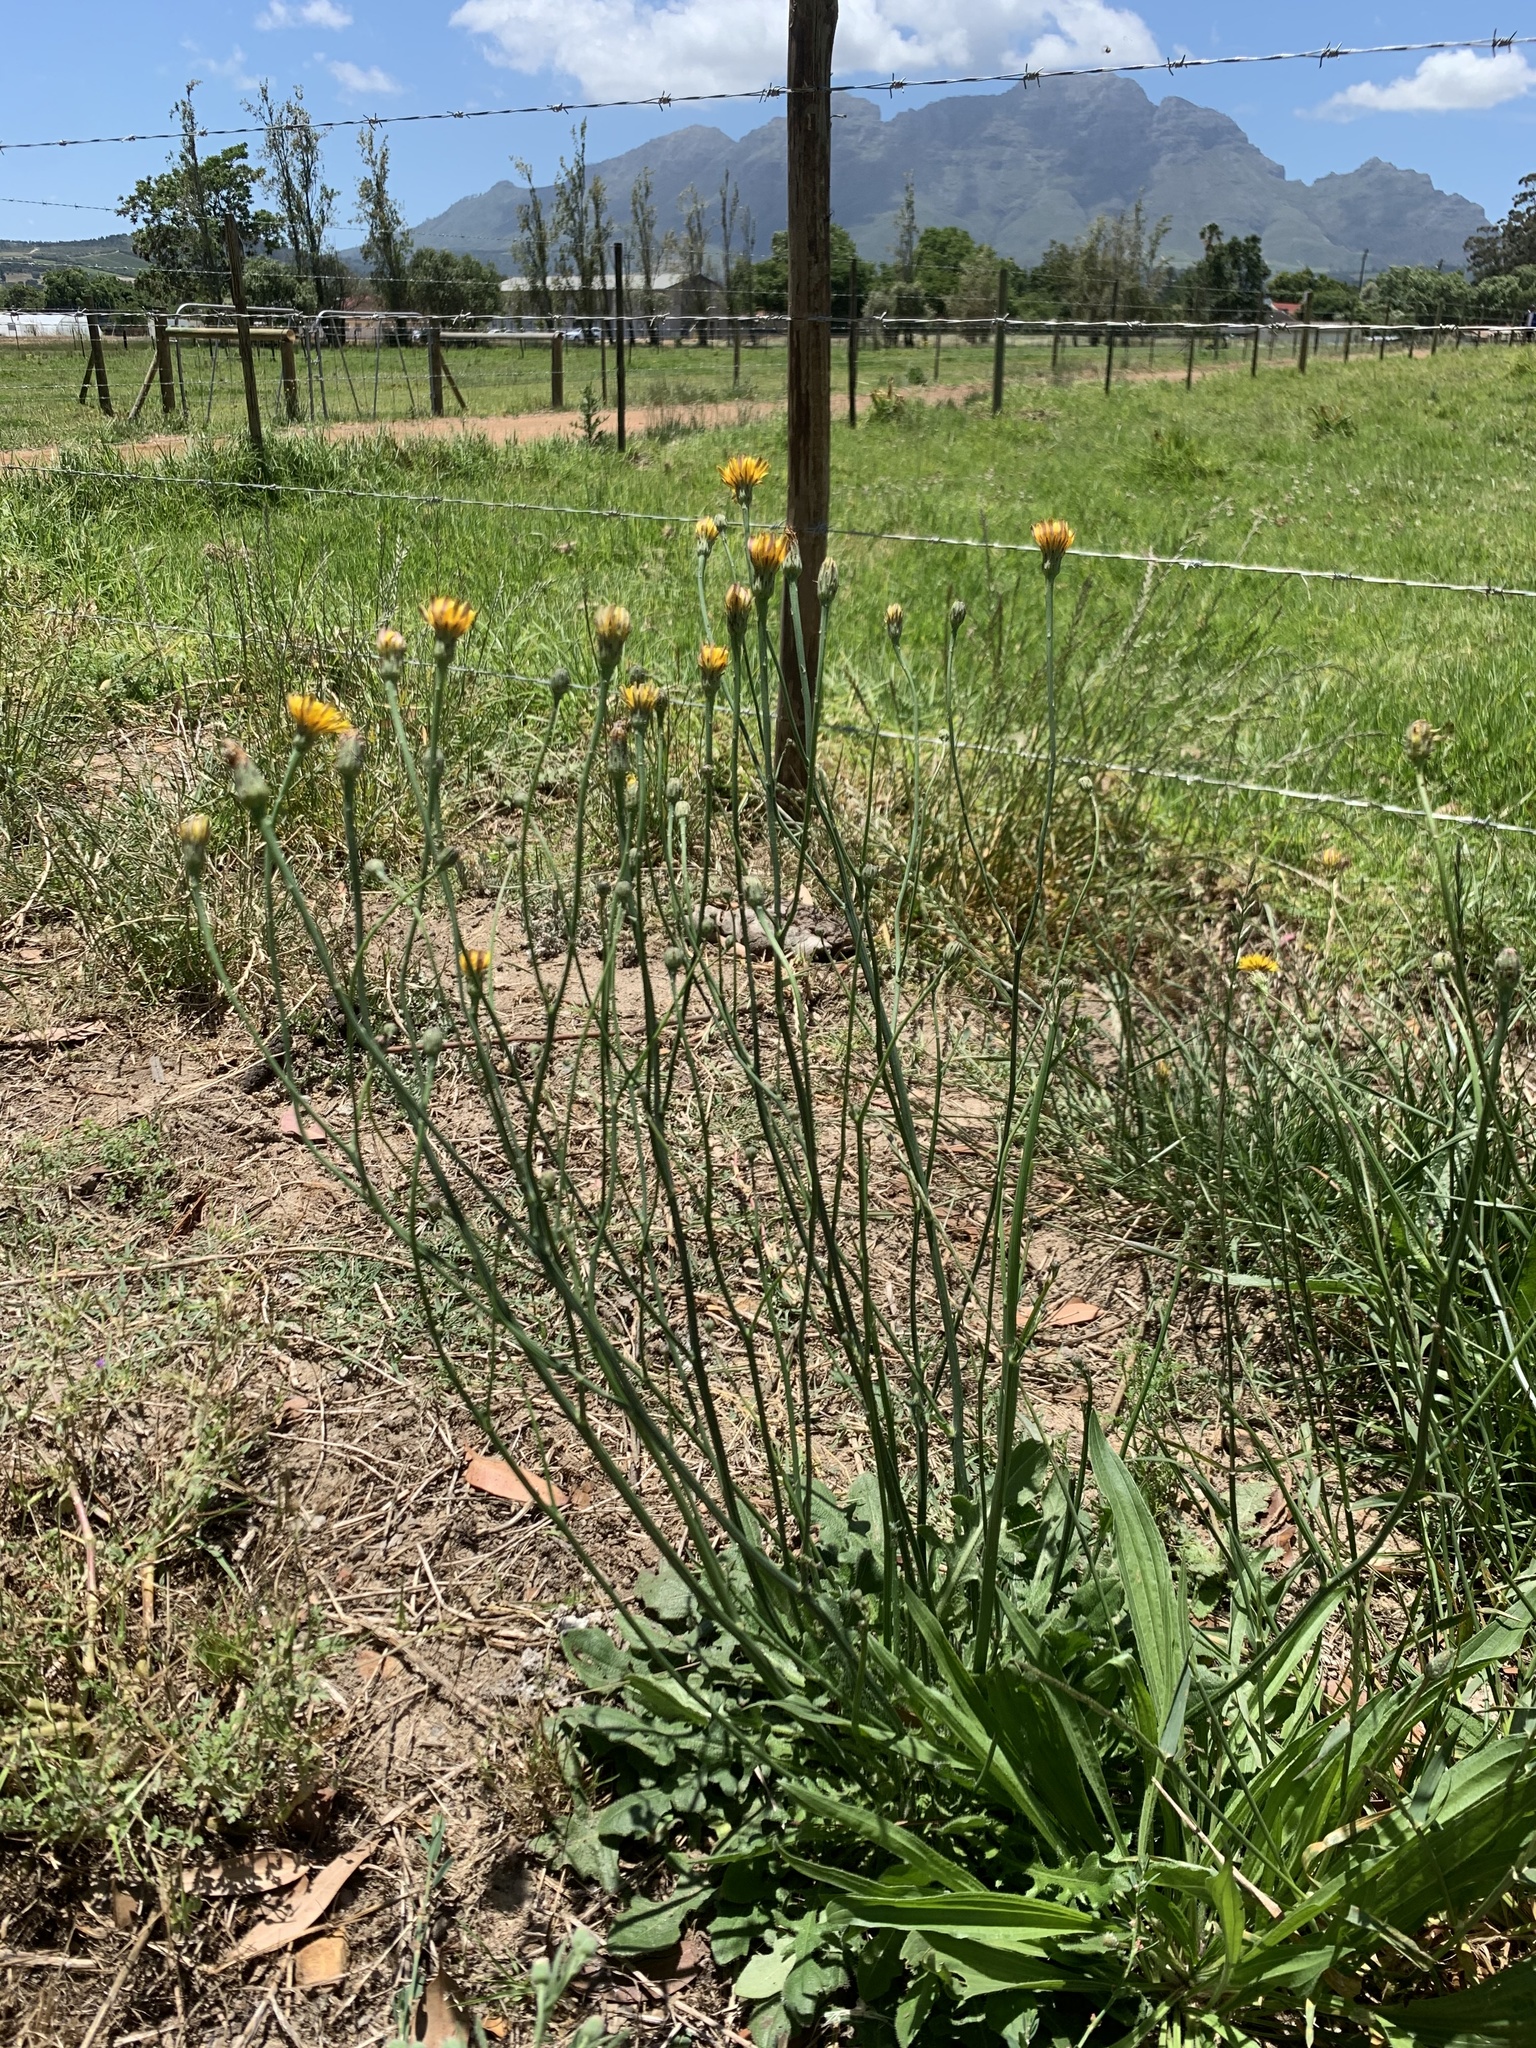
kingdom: Plantae
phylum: Tracheophyta
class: Magnoliopsida
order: Asterales
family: Asteraceae
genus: Hypochaeris
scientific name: Hypochaeris radicata
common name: Flatweed
